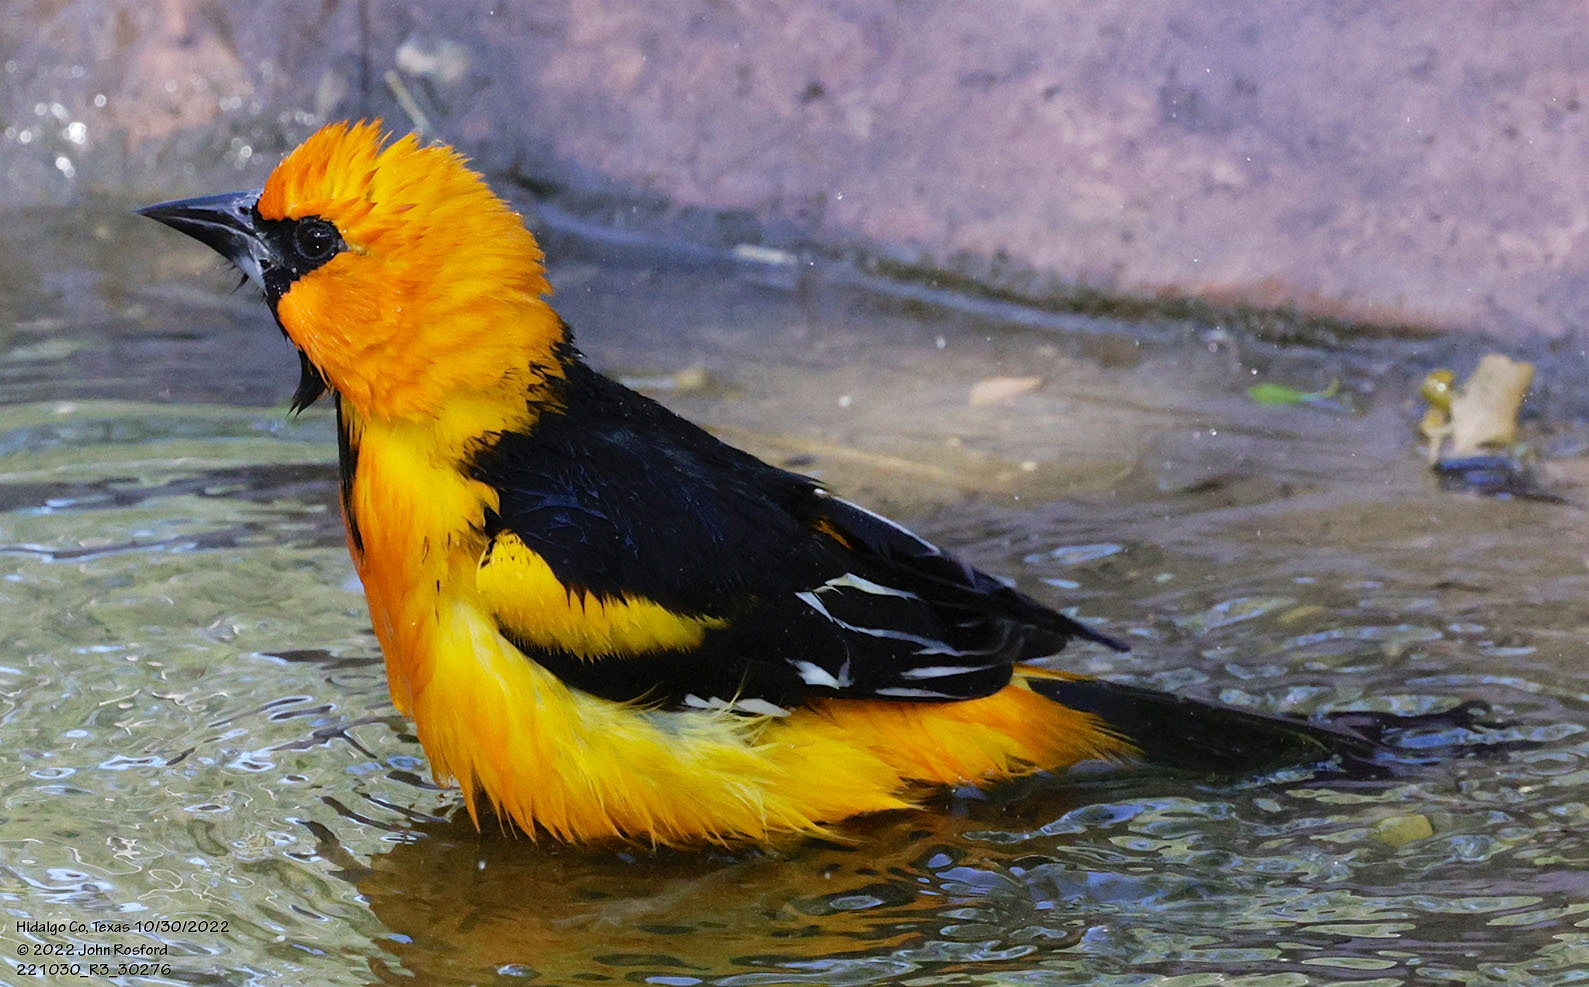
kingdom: Animalia
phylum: Chordata
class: Aves
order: Passeriformes
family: Icteridae
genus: Icterus
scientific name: Icterus gularis
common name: Altamira oriole
